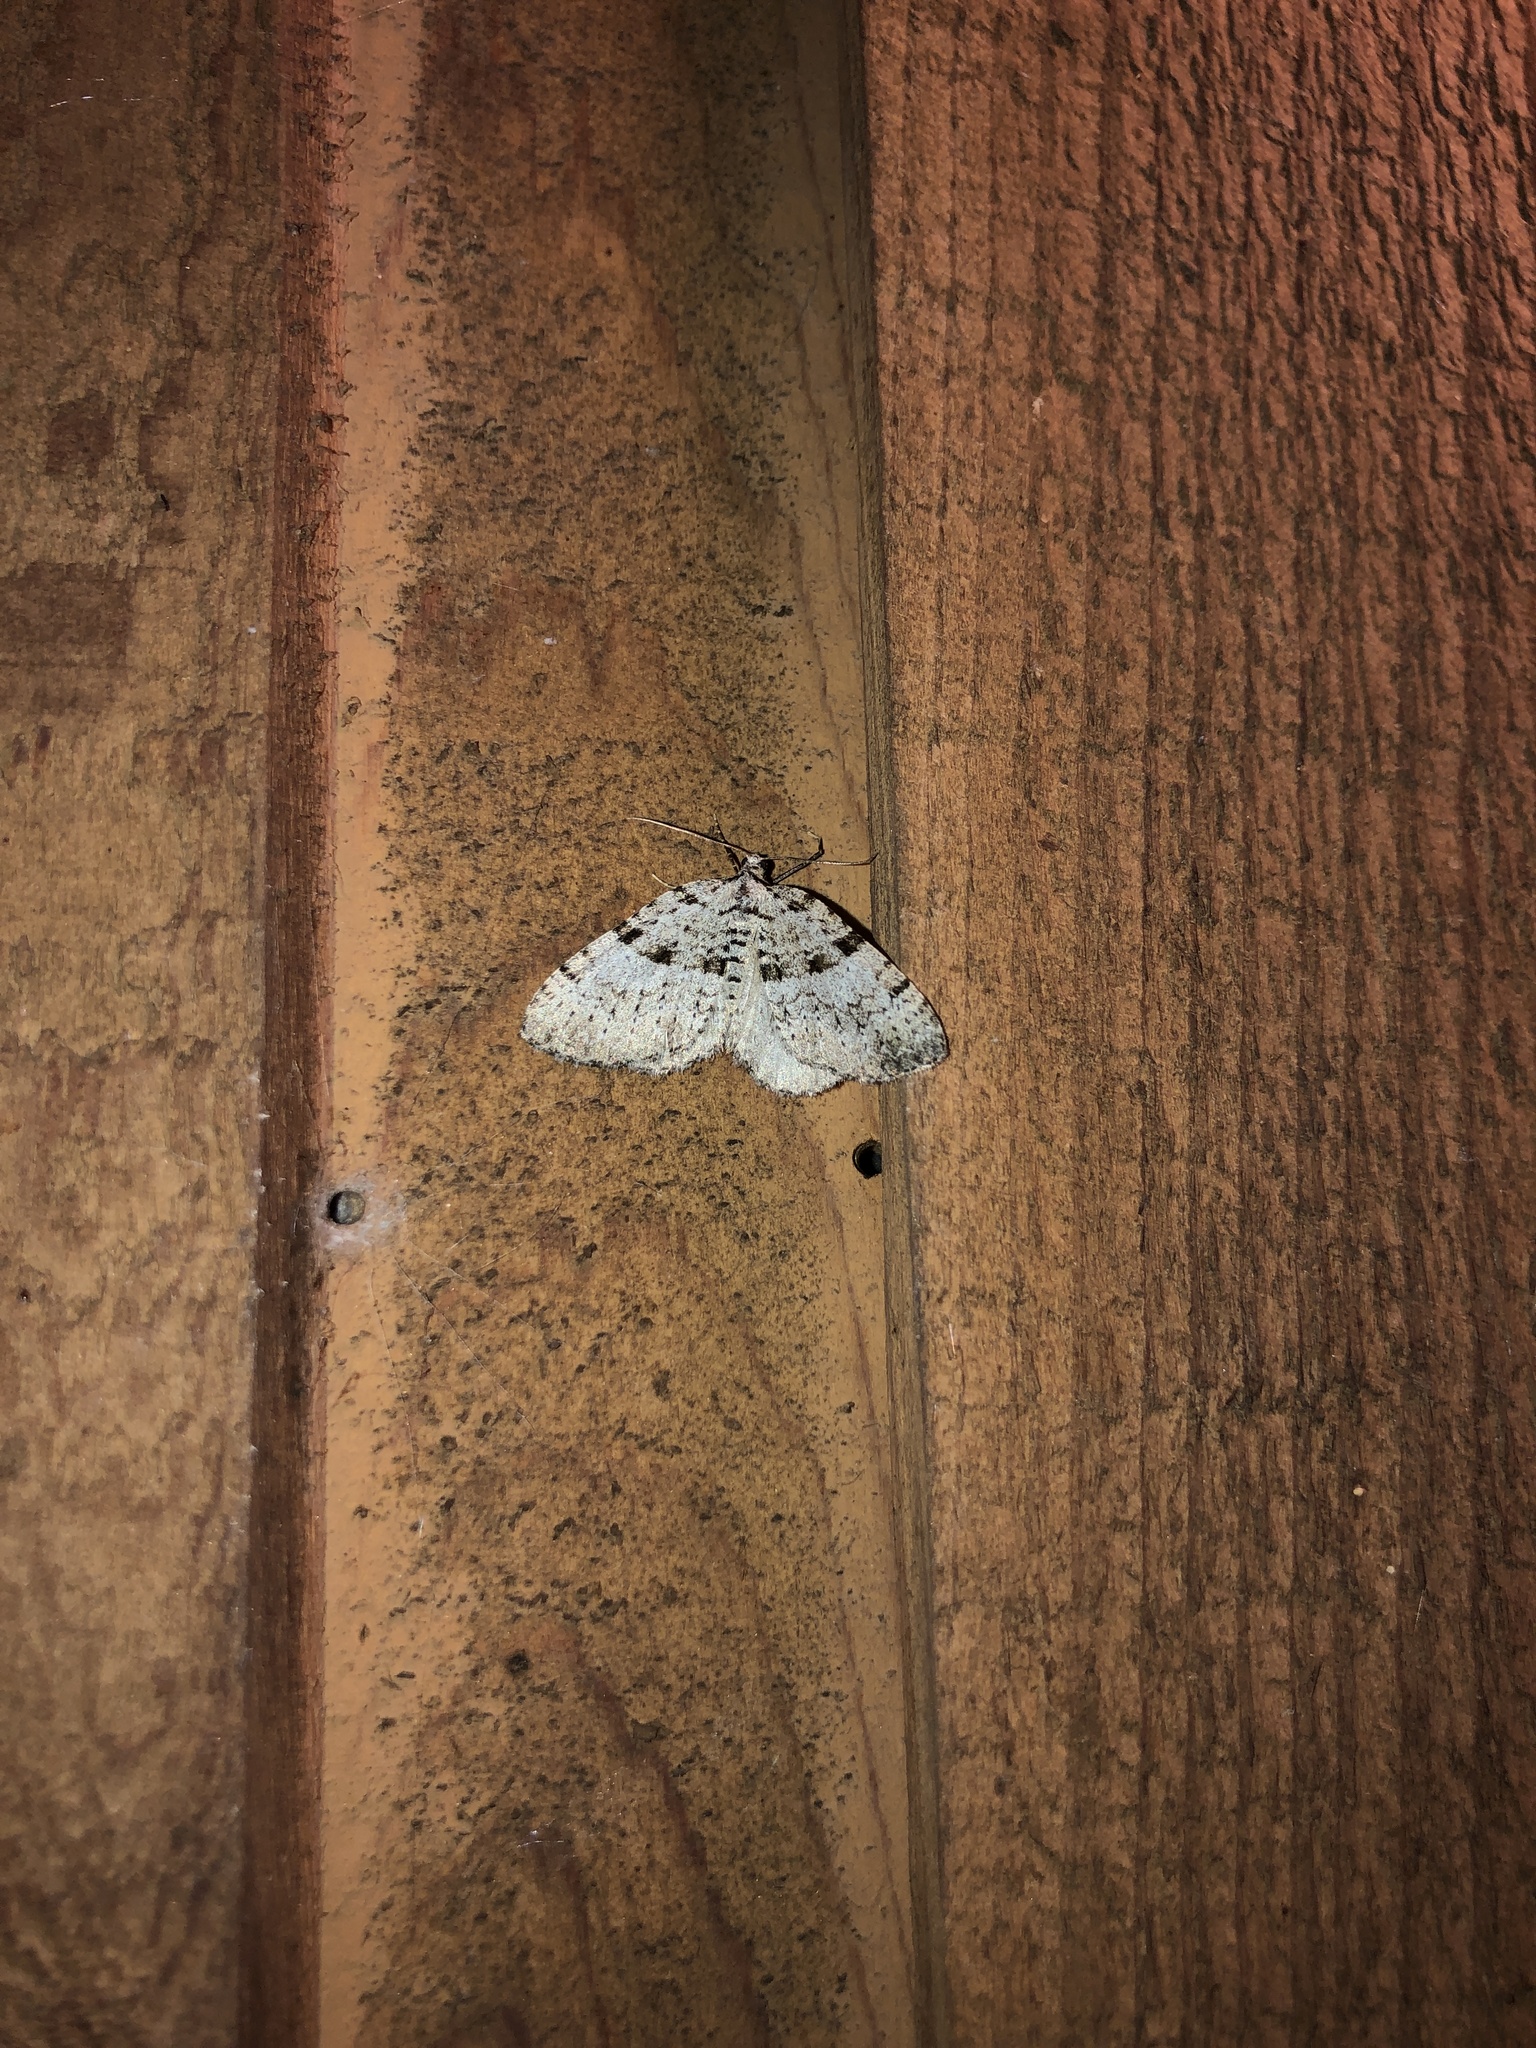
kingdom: Animalia
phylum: Arthropoda
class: Insecta
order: Lepidoptera
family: Geometridae
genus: Perizoma
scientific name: Perizoma curvilinea
